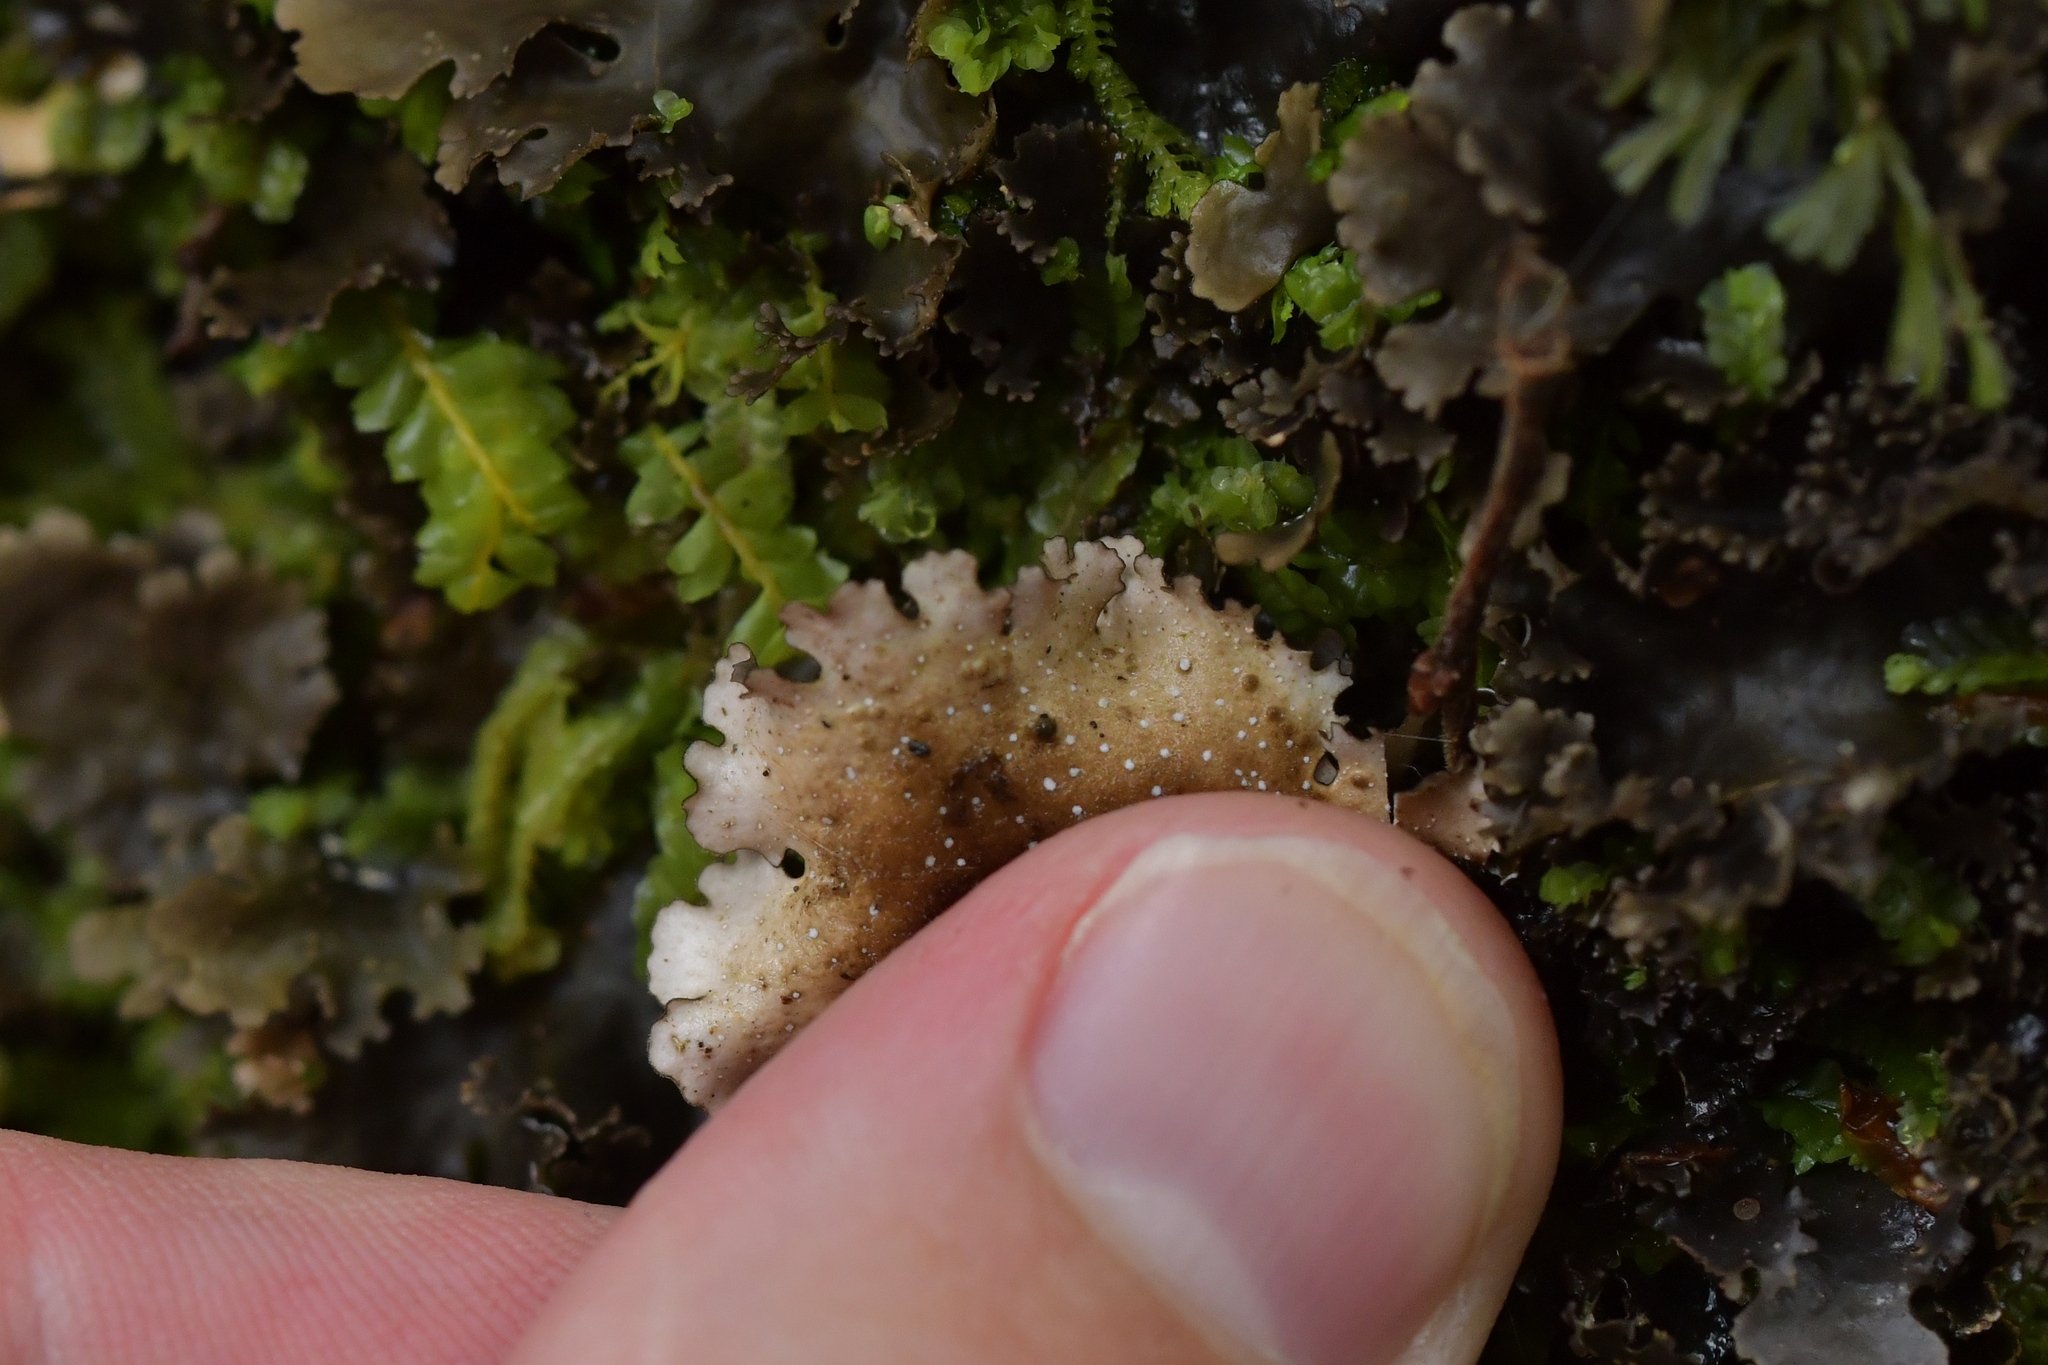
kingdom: Fungi
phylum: Ascomycota
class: Lecanoromycetes
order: Peltigerales
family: Lobariaceae
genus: Pseudocyphellaria
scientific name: Pseudocyphellaria dissimilis
